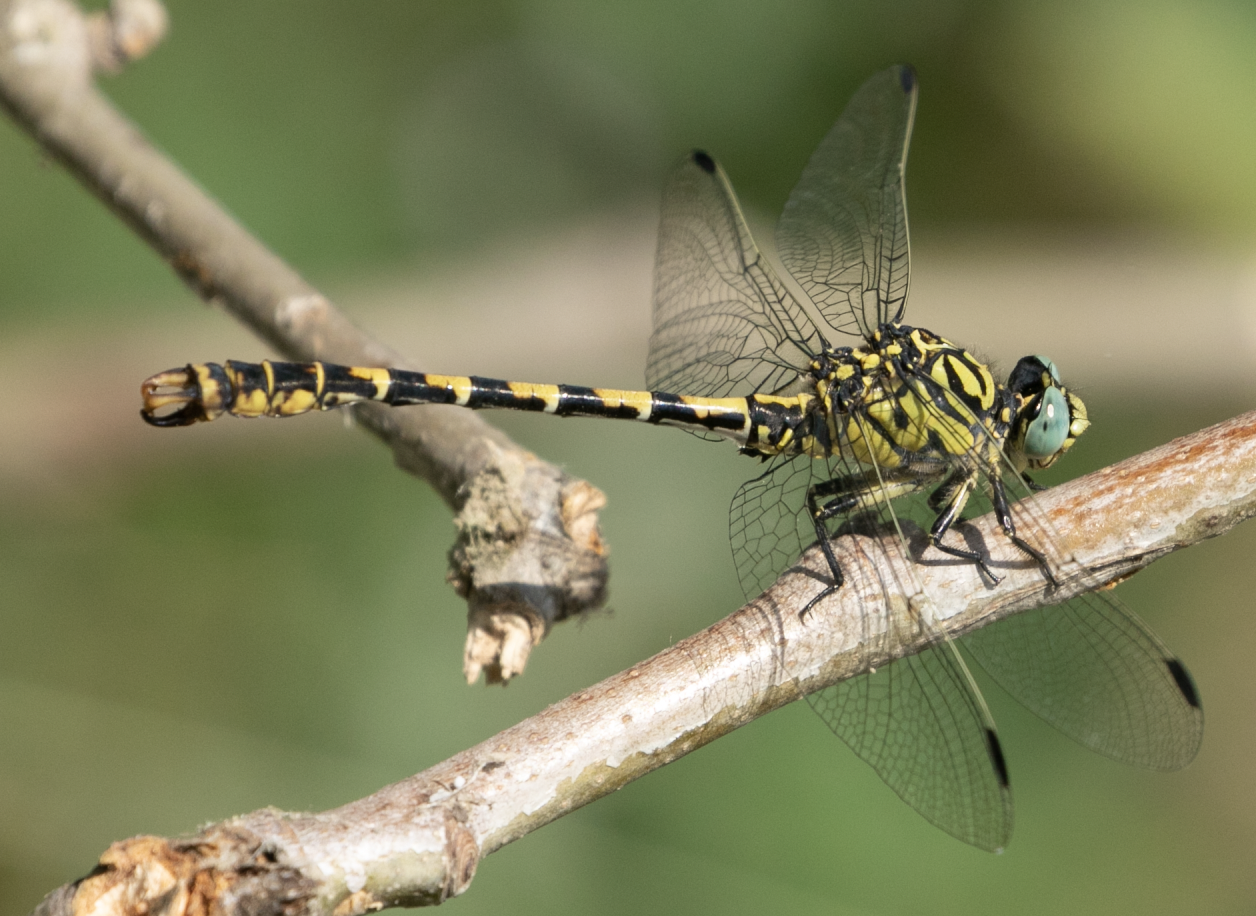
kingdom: Animalia
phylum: Arthropoda
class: Insecta
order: Odonata
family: Gomphidae
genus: Onychogomphus
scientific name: Onychogomphus forcipatus
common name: Small pincertail
